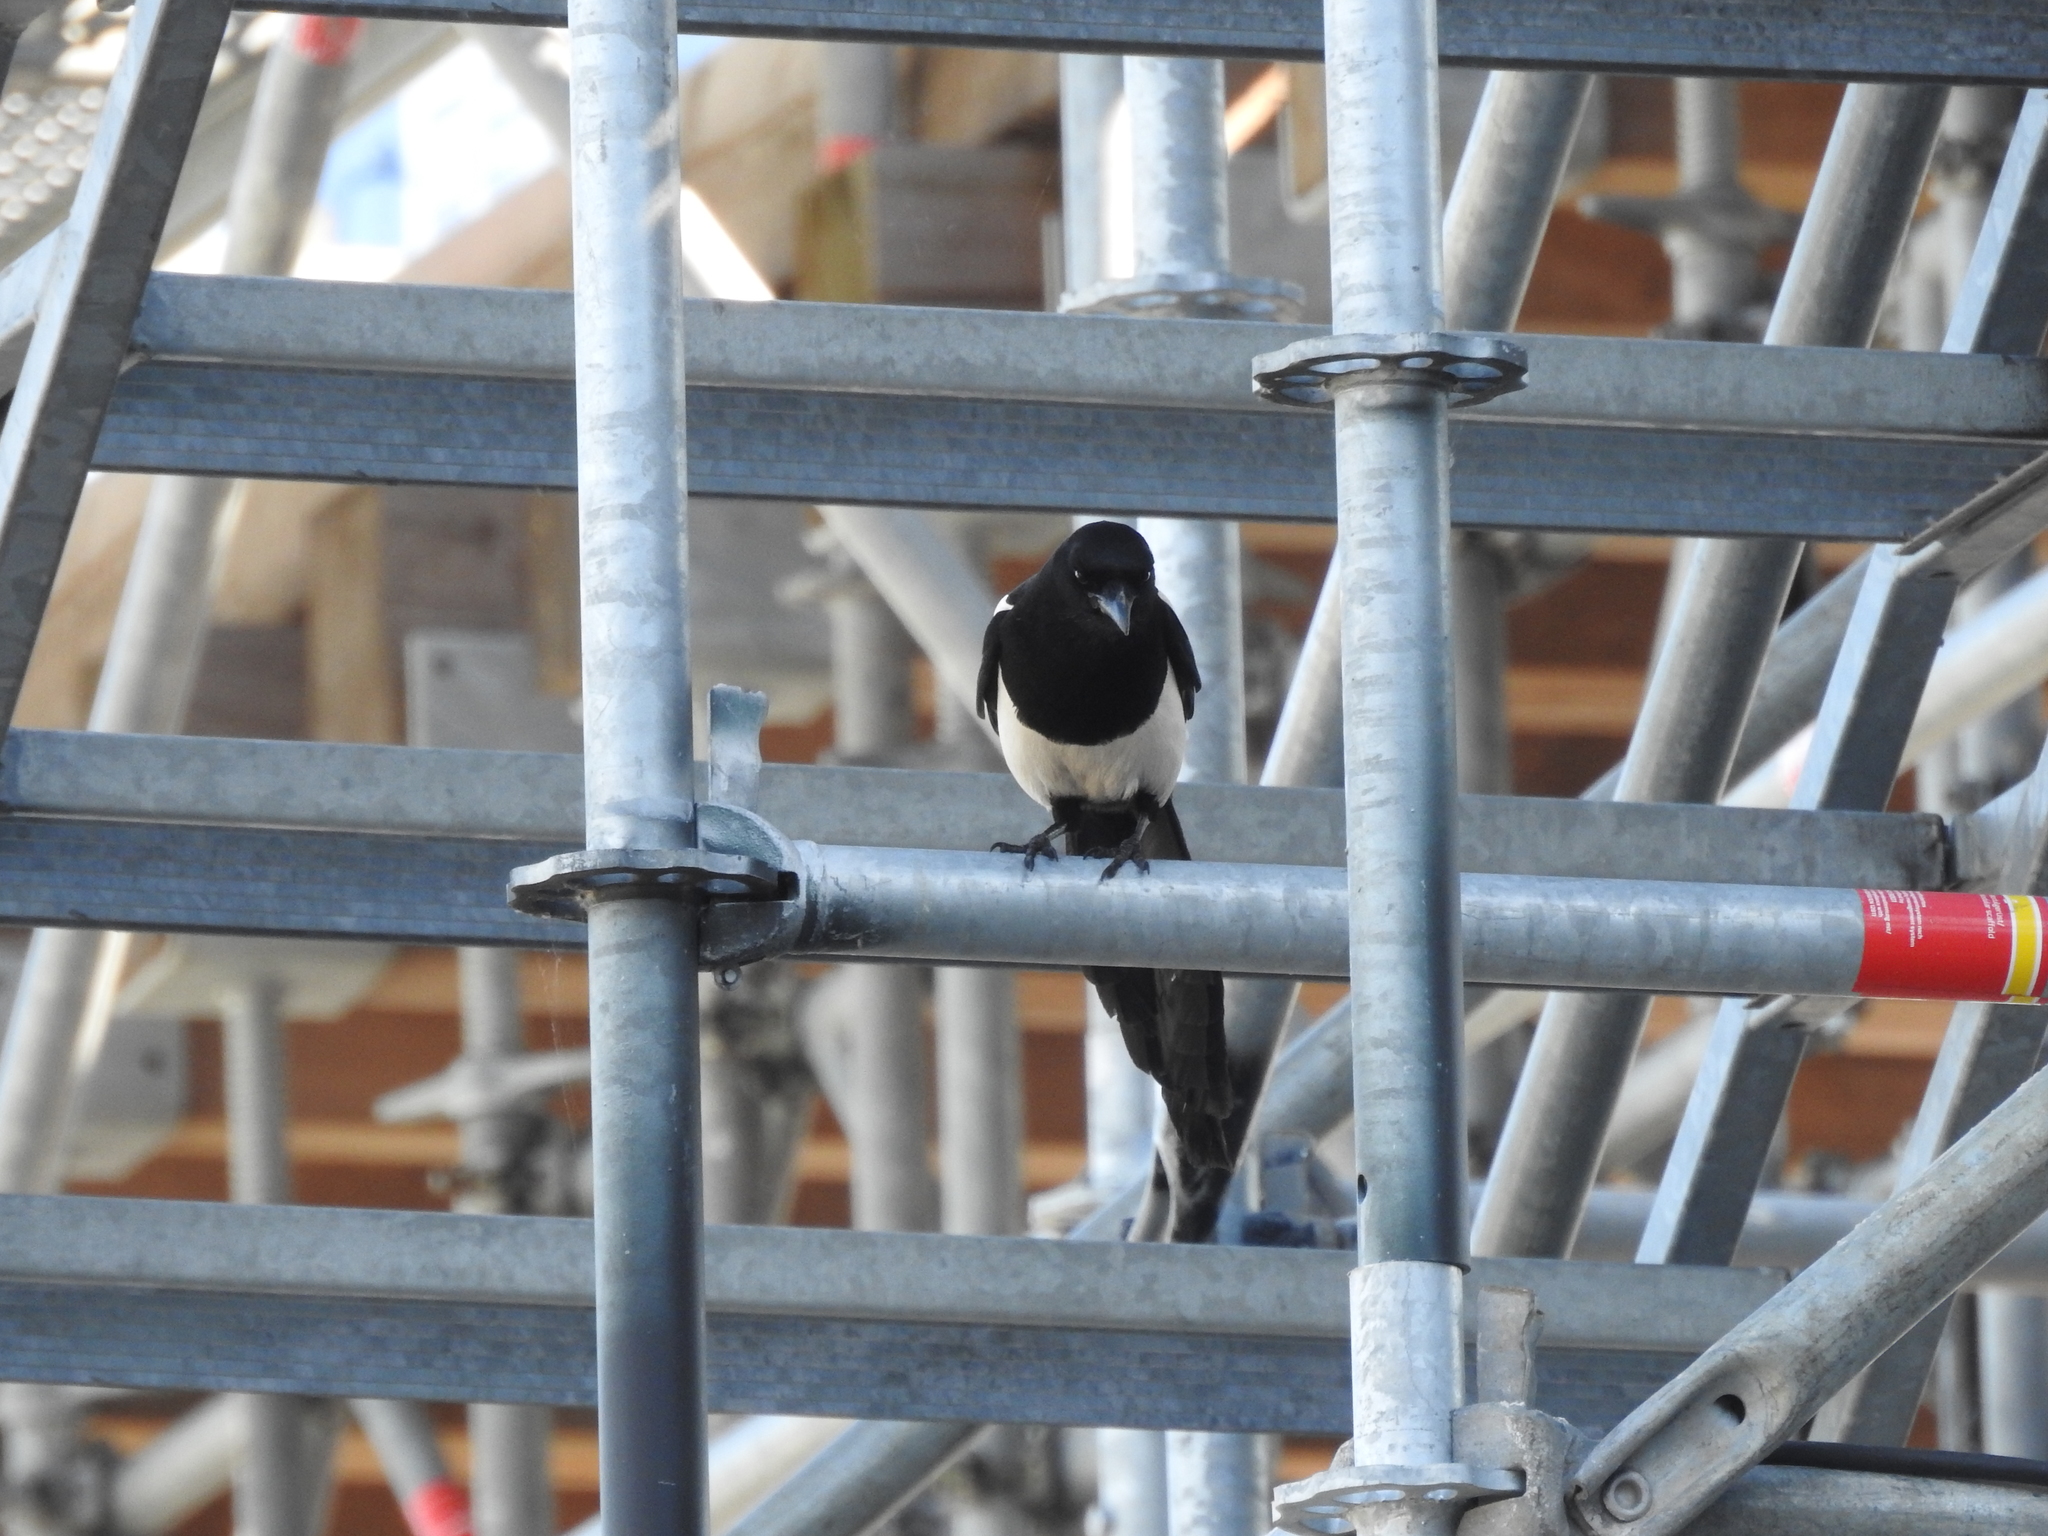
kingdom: Animalia
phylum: Chordata
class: Aves
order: Passeriformes
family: Corvidae
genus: Pica
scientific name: Pica pica
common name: Eurasian magpie
